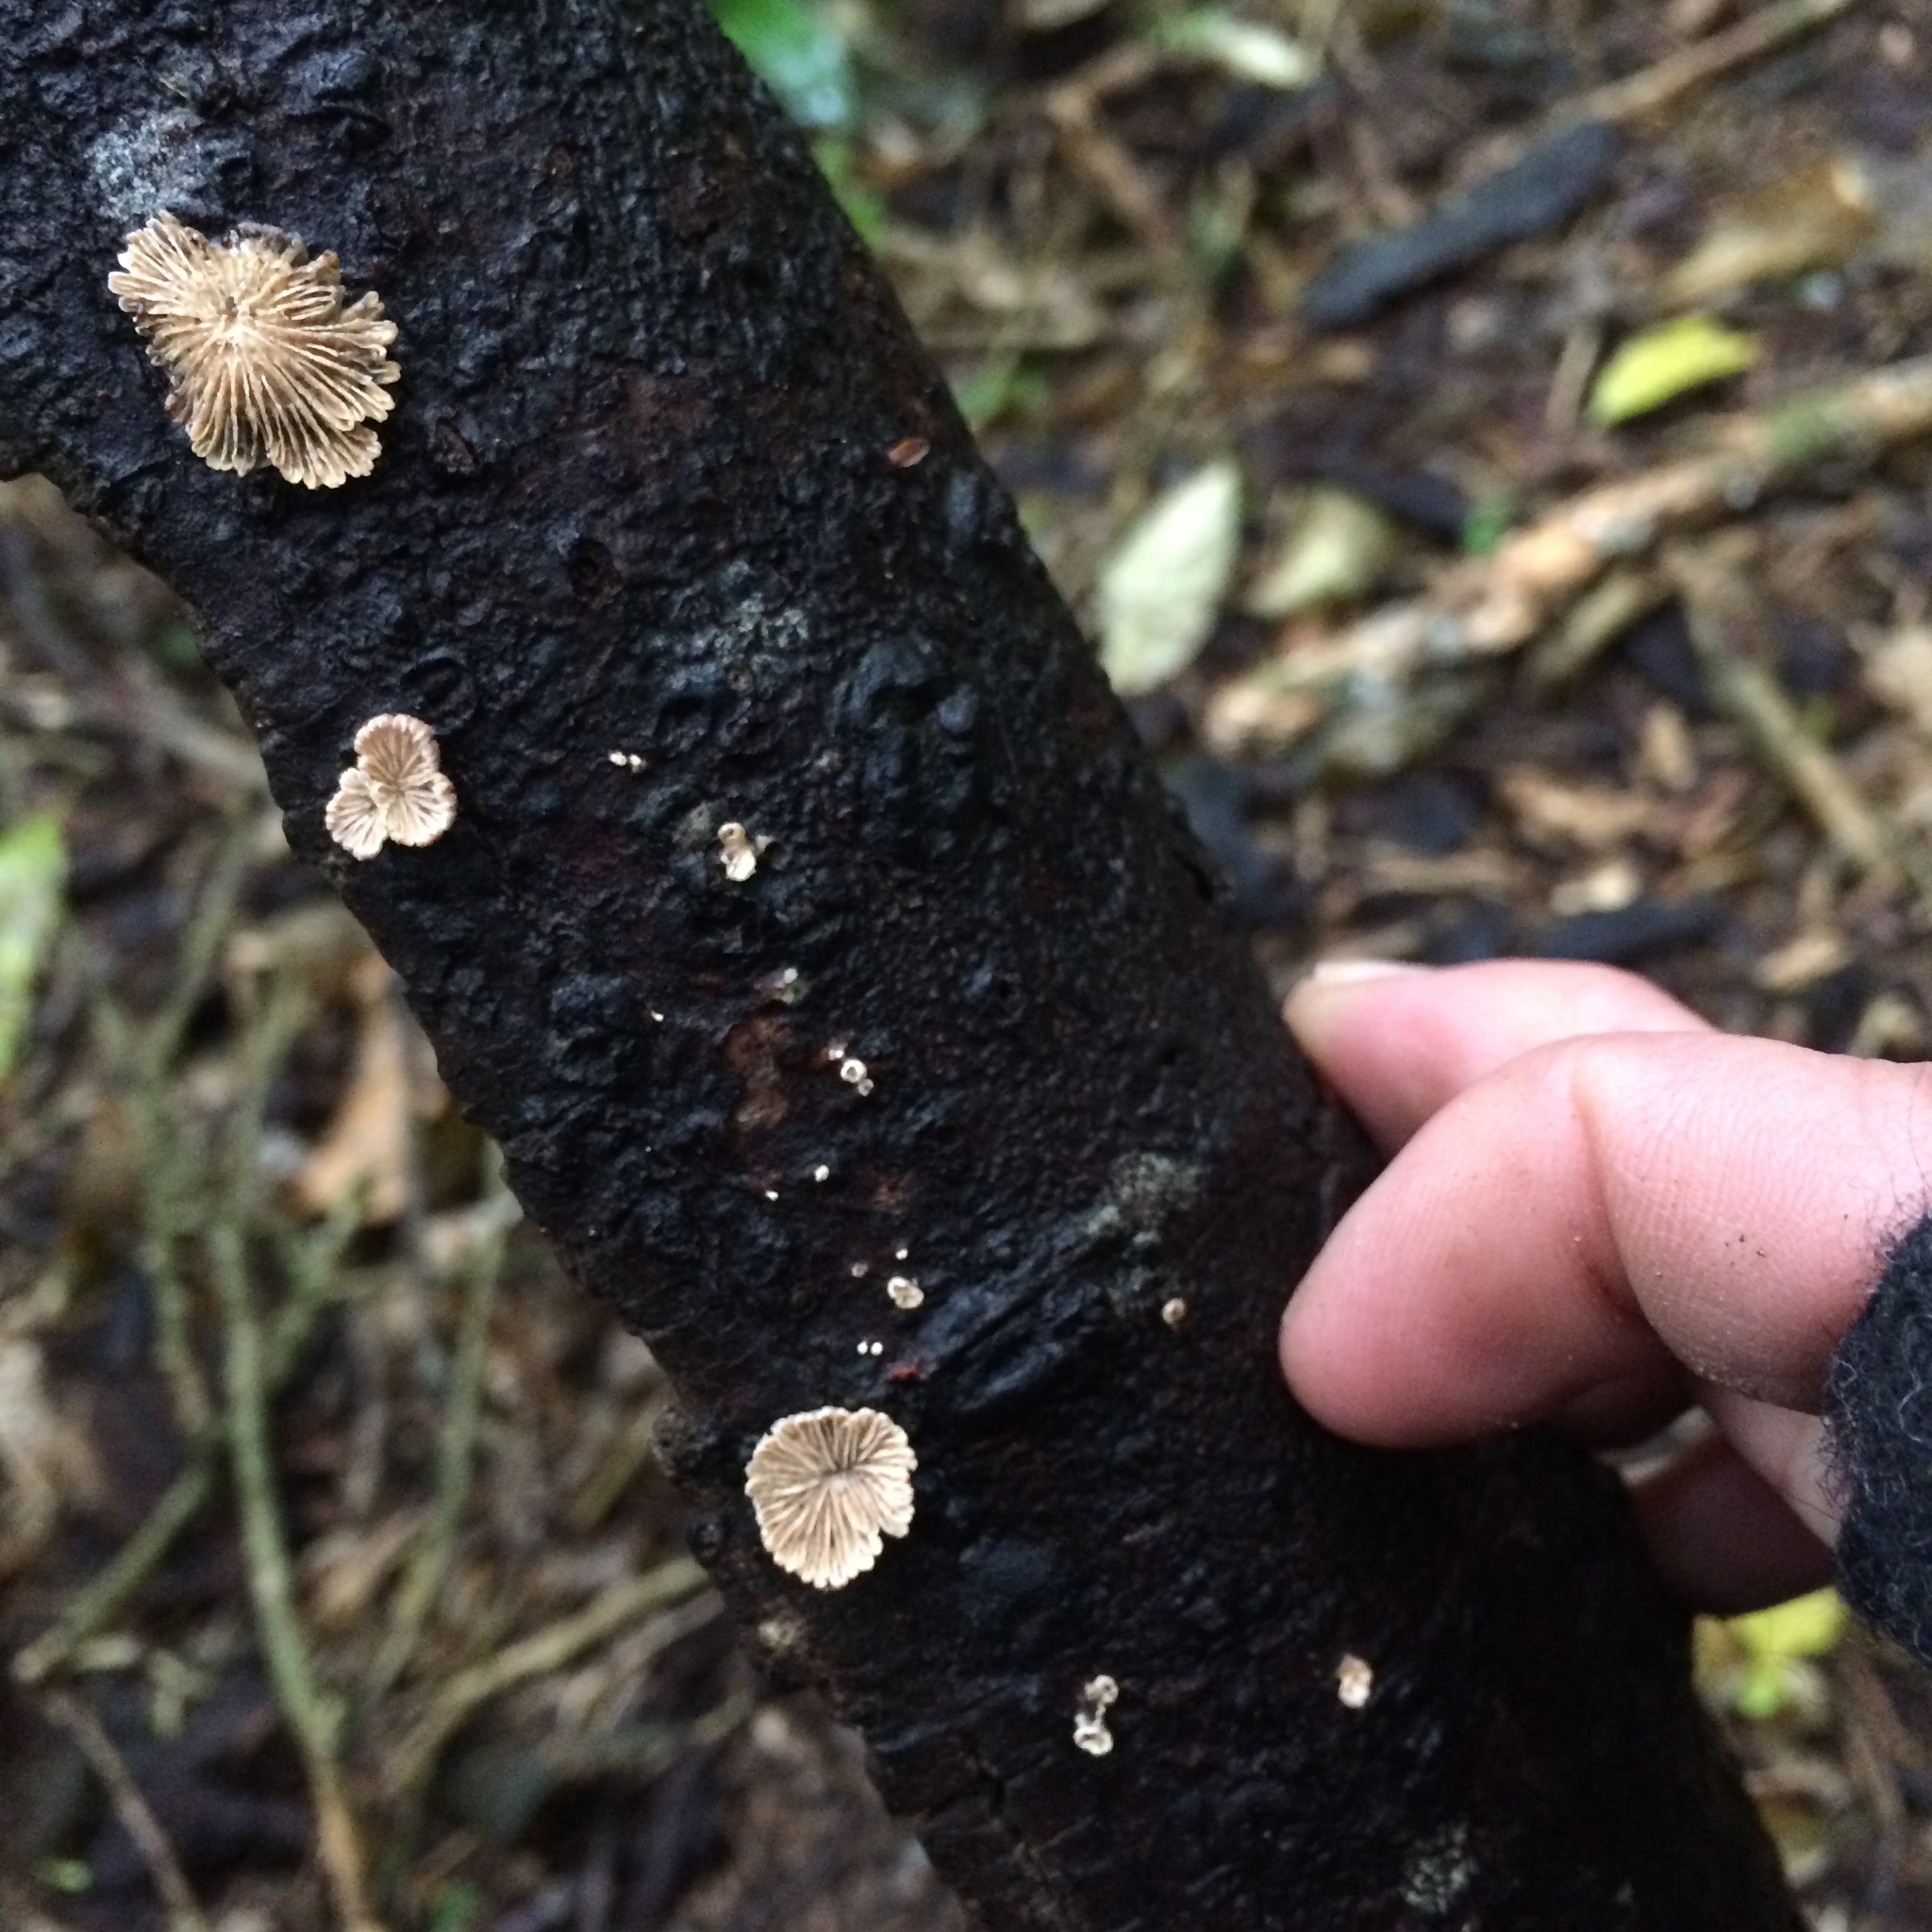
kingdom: Fungi
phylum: Basidiomycota
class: Agaricomycetes
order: Agaricales
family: Schizophyllaceae
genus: Schizophyllum
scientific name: Schizophyllum commune
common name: Common porecrust
